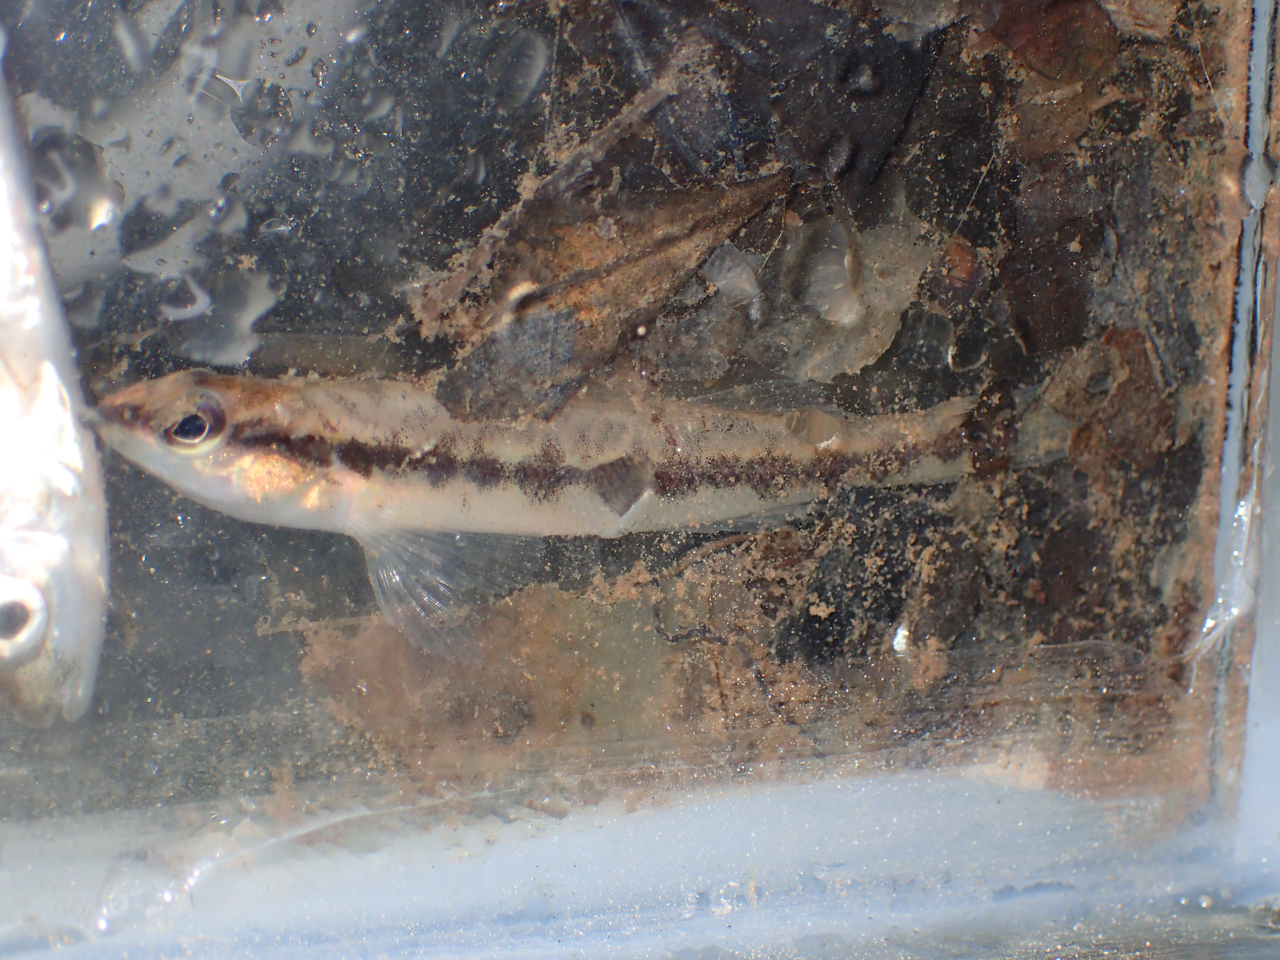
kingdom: Animalia
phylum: Chordata
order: Perciformes
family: Percidae
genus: Percina
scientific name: Percina nigrofasciata
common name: Blackbanded darter
